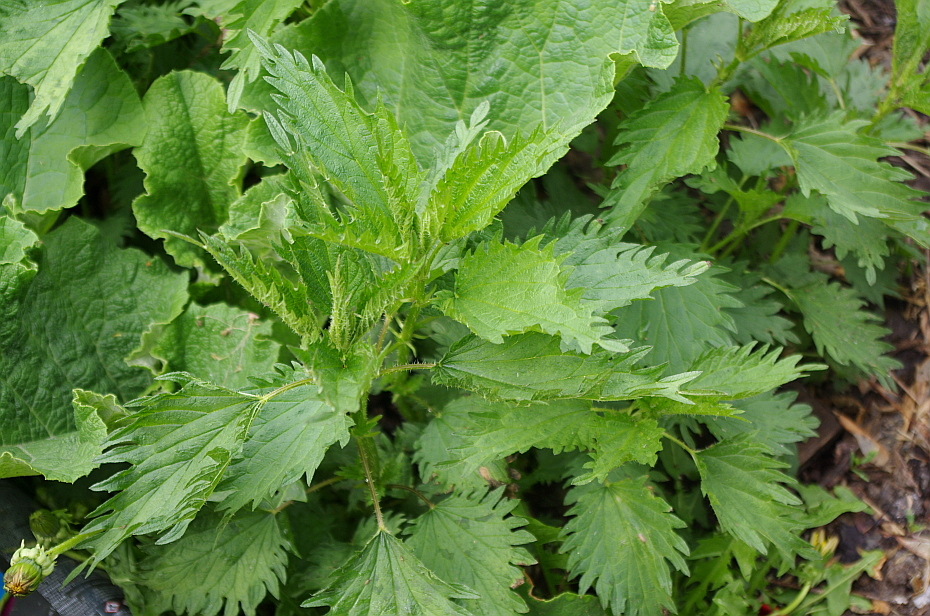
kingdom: Plantae
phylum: Tracheophyta
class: Magnoliopsida
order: Rosales
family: Urticaceae
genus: Urtica
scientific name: Urtica dioica
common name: Common nettle
